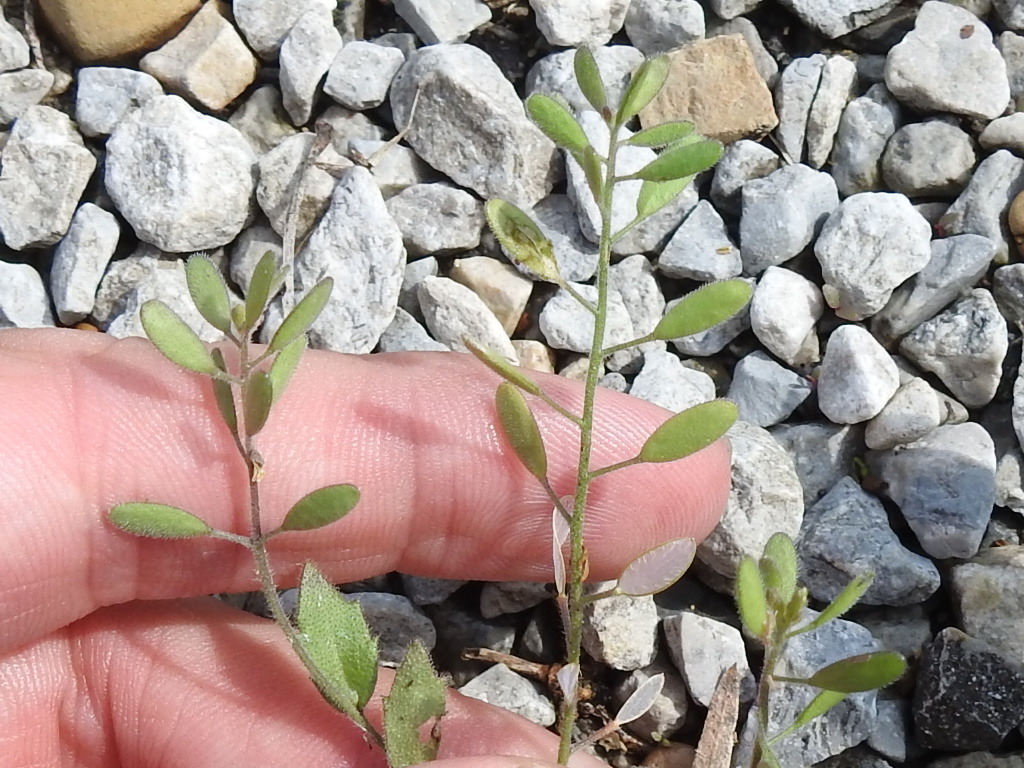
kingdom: Plantae
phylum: Tracheophyta
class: Magnoliopsida
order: Brassicales
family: Brassicaceae
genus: Tomostima
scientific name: Tomostima platycarpa
